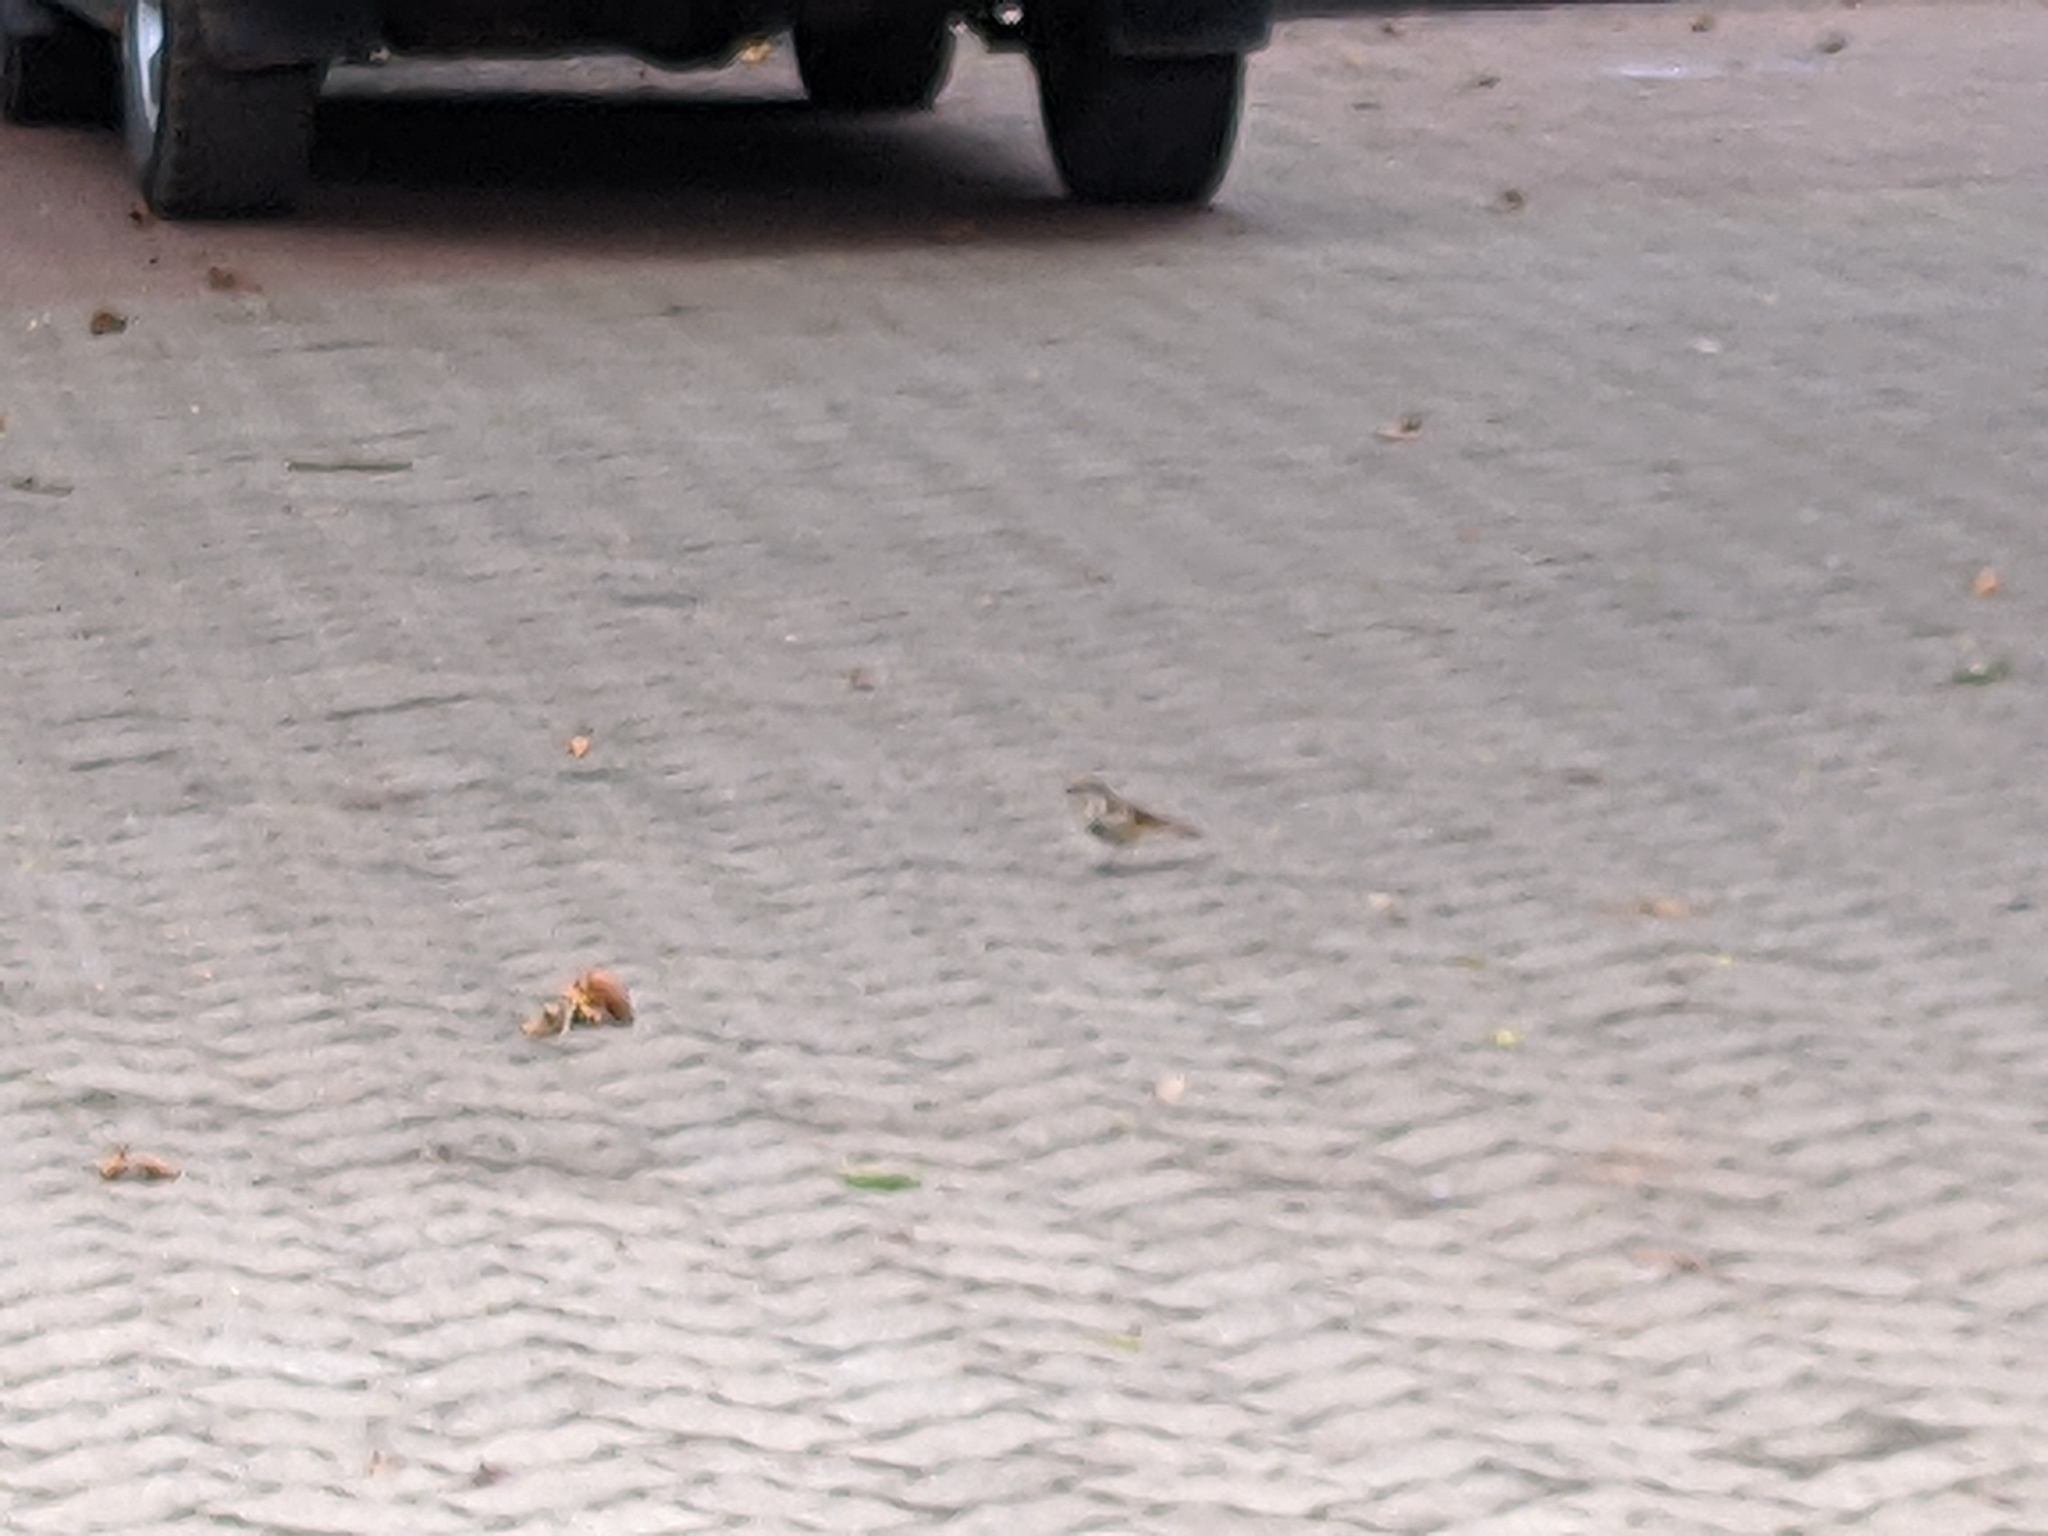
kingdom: Animalia
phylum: Chordata
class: Aves
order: Passeriformes
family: Muscicapidae
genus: Cichladusa
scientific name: Cichladusa guttata
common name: Spotted palm thrush
